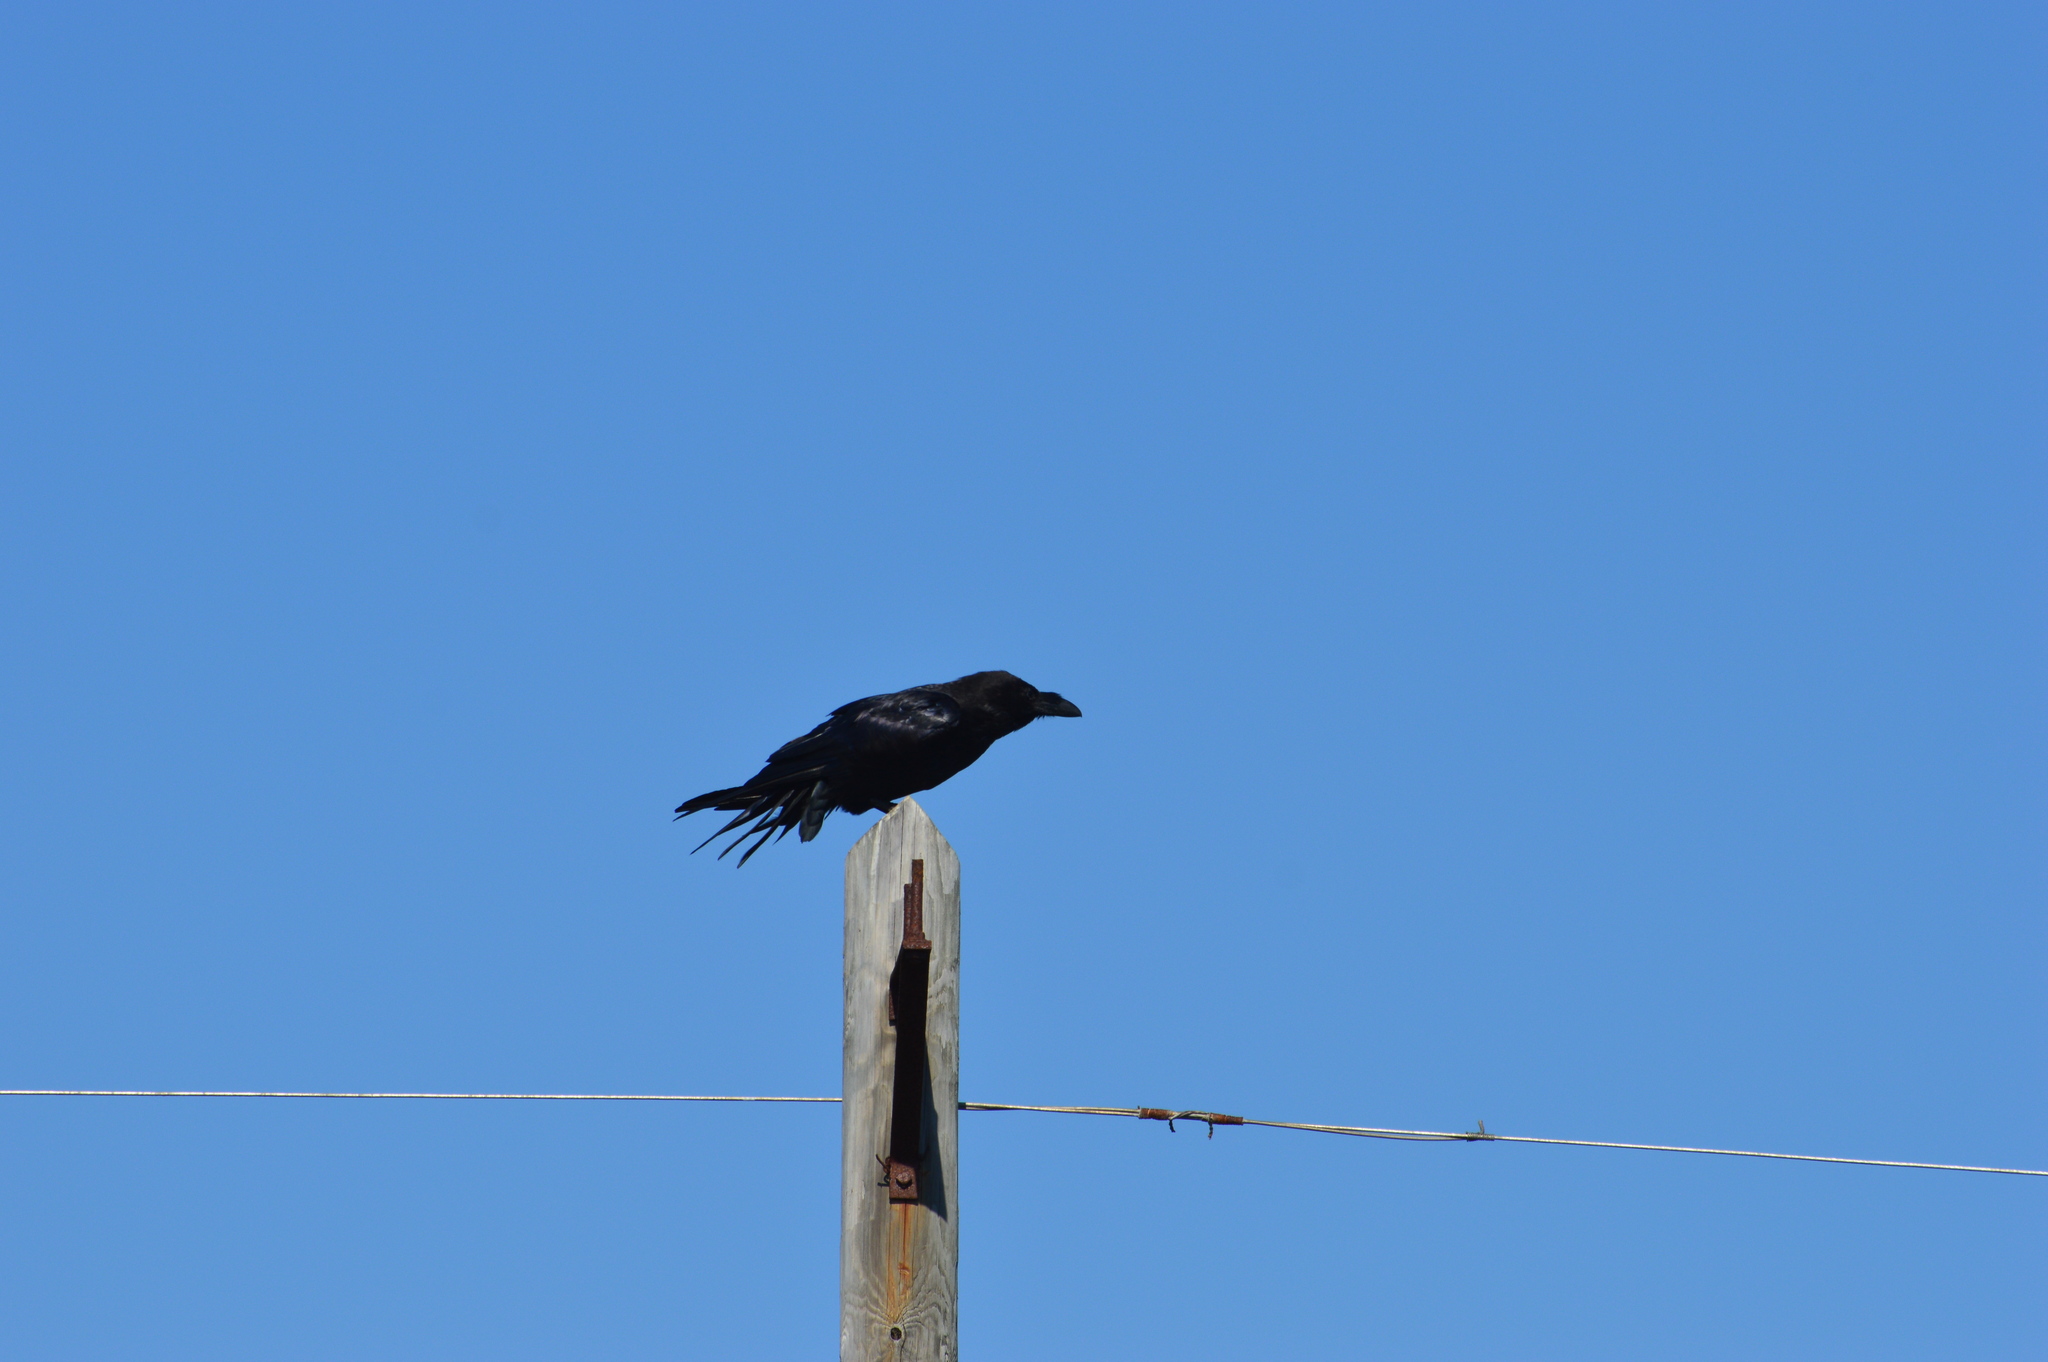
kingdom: Animalia
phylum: Chordata
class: Aves
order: Passeriformes
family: Corvidae
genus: Corvus
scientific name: Corvus corax
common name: Common raven
